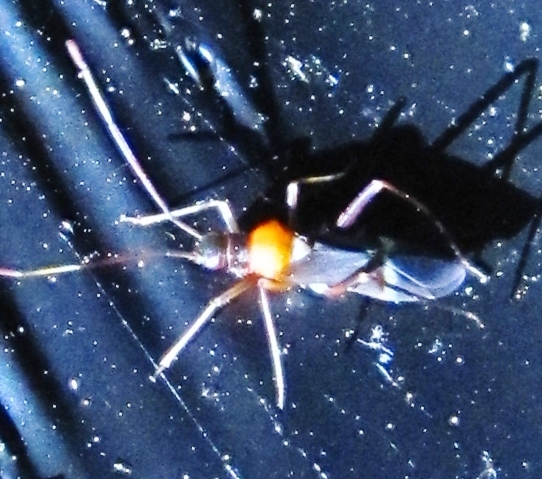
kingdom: Animalia
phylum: Arthropoda
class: Insecta
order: Hemiptera
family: Miridae
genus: Pseudoxenetus
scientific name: Pseudoxenetus regalis
